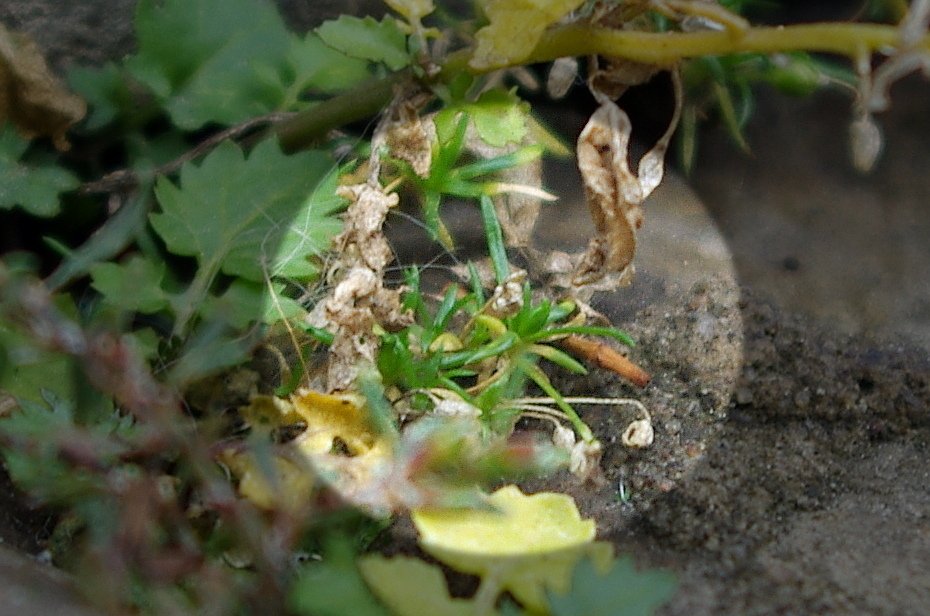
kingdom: Plantae
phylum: Tracheophyta
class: Magnoliopsida
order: Caryophyllales
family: Caryophyllaceae
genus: Sagina
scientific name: Sagina procumbens
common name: Procumbent pearlwort
